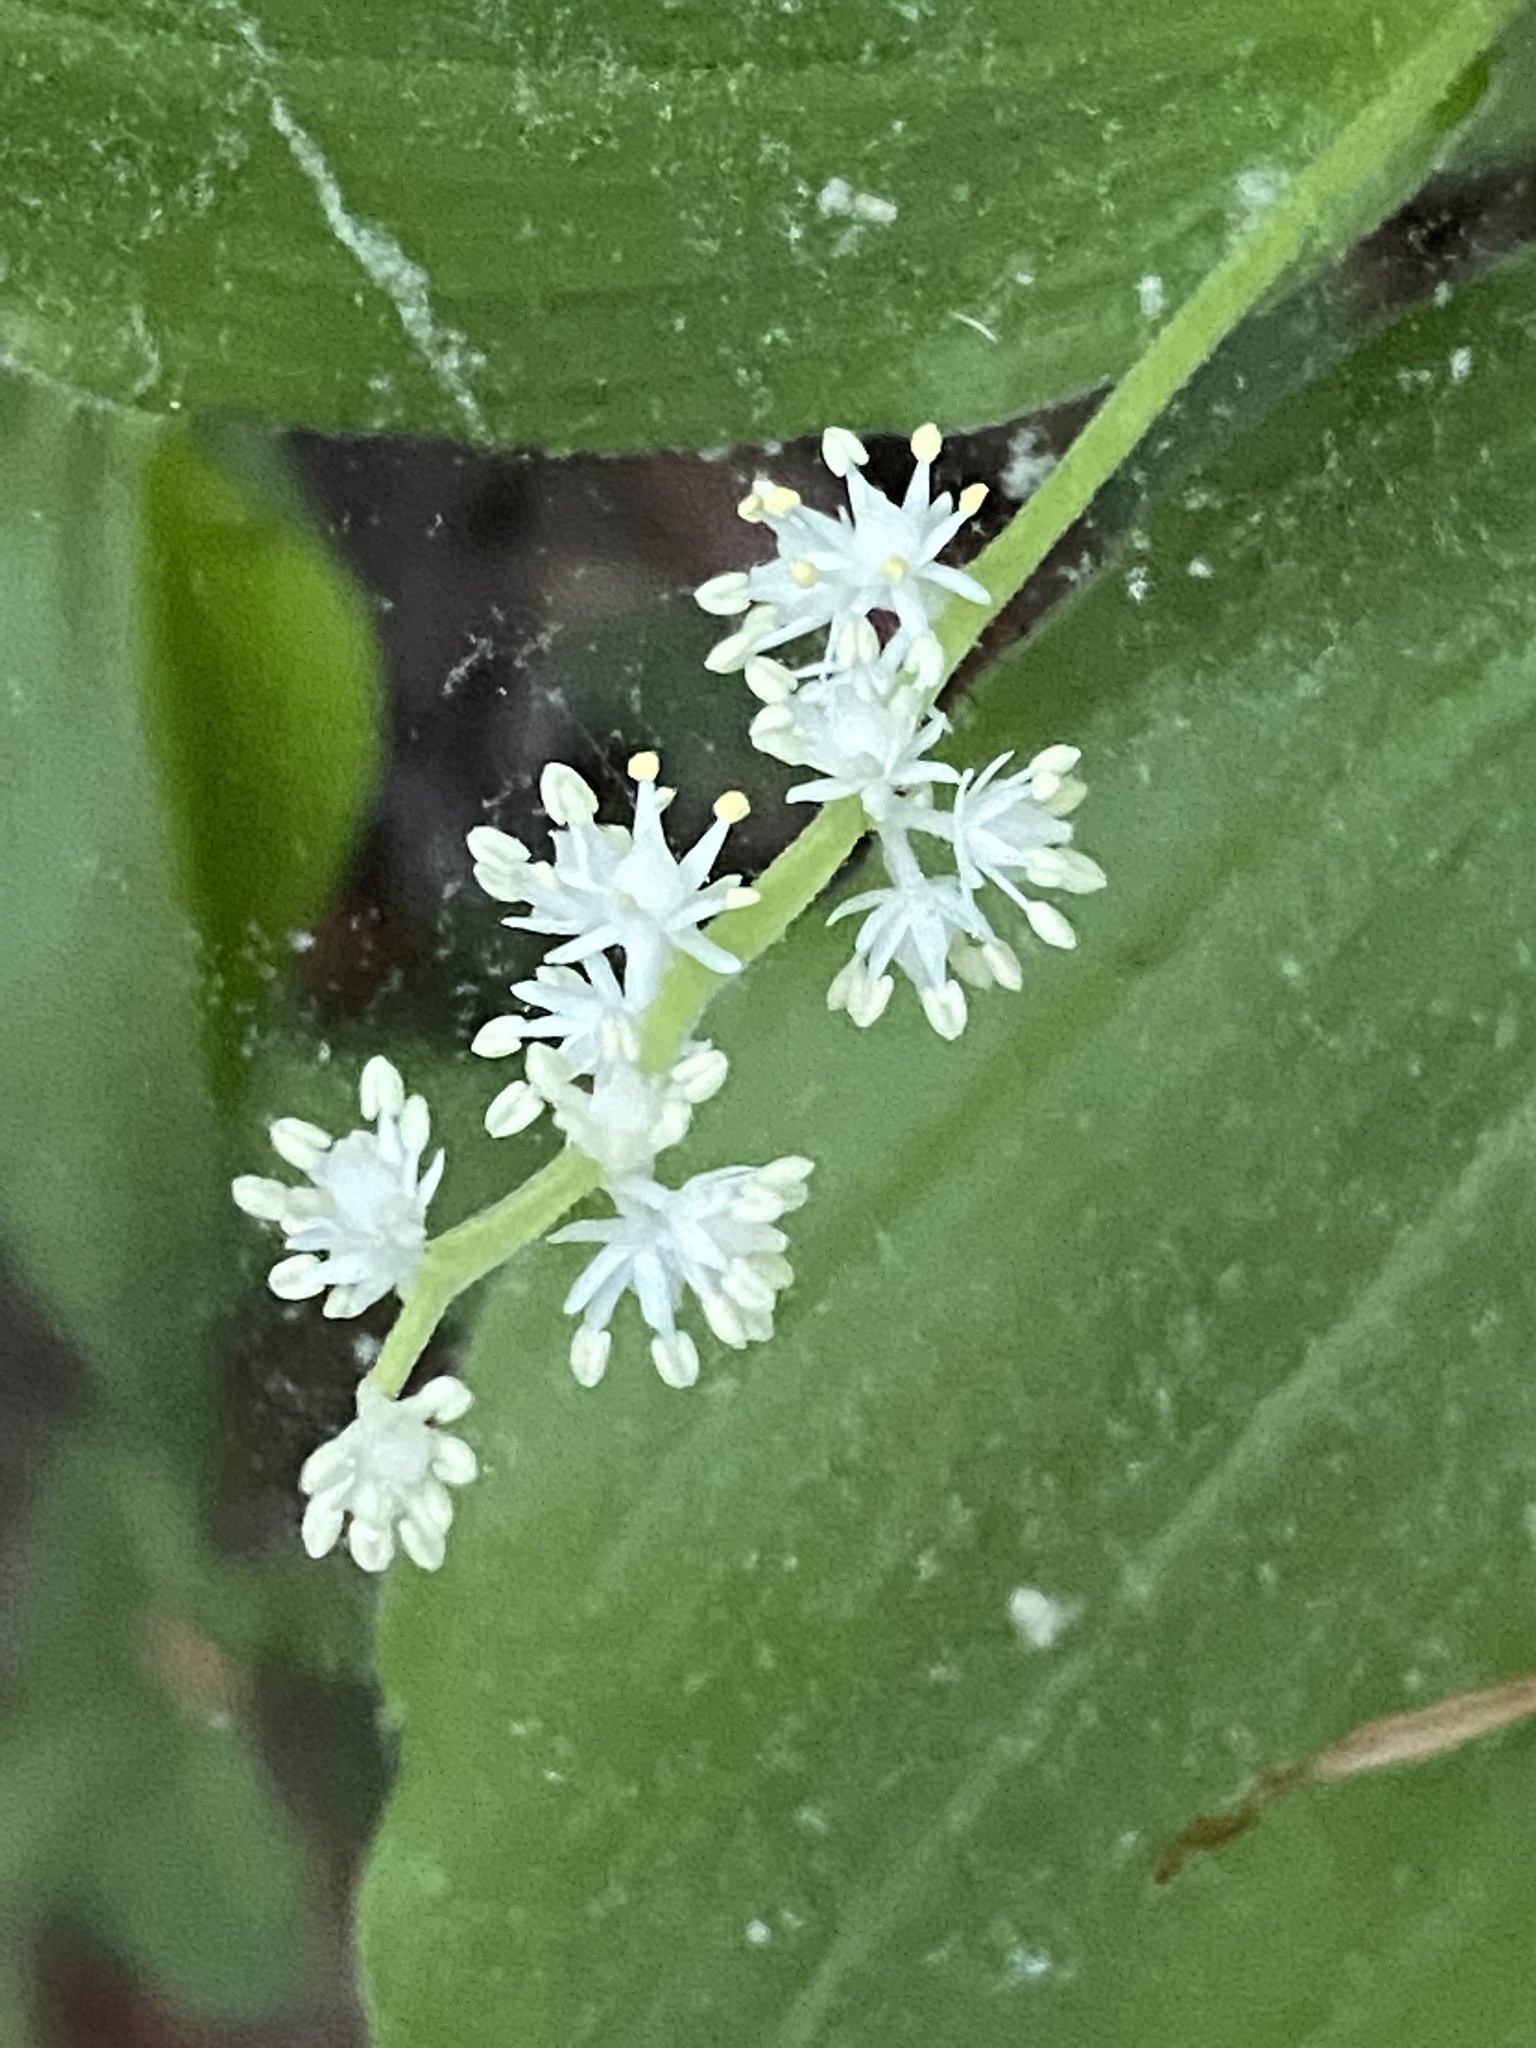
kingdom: Plantae
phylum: Tracheophyta
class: Liliopsida
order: Asparagales
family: Asparagaceae
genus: Maianthemum
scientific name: Maianthemum racemosum
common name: False spikenard
